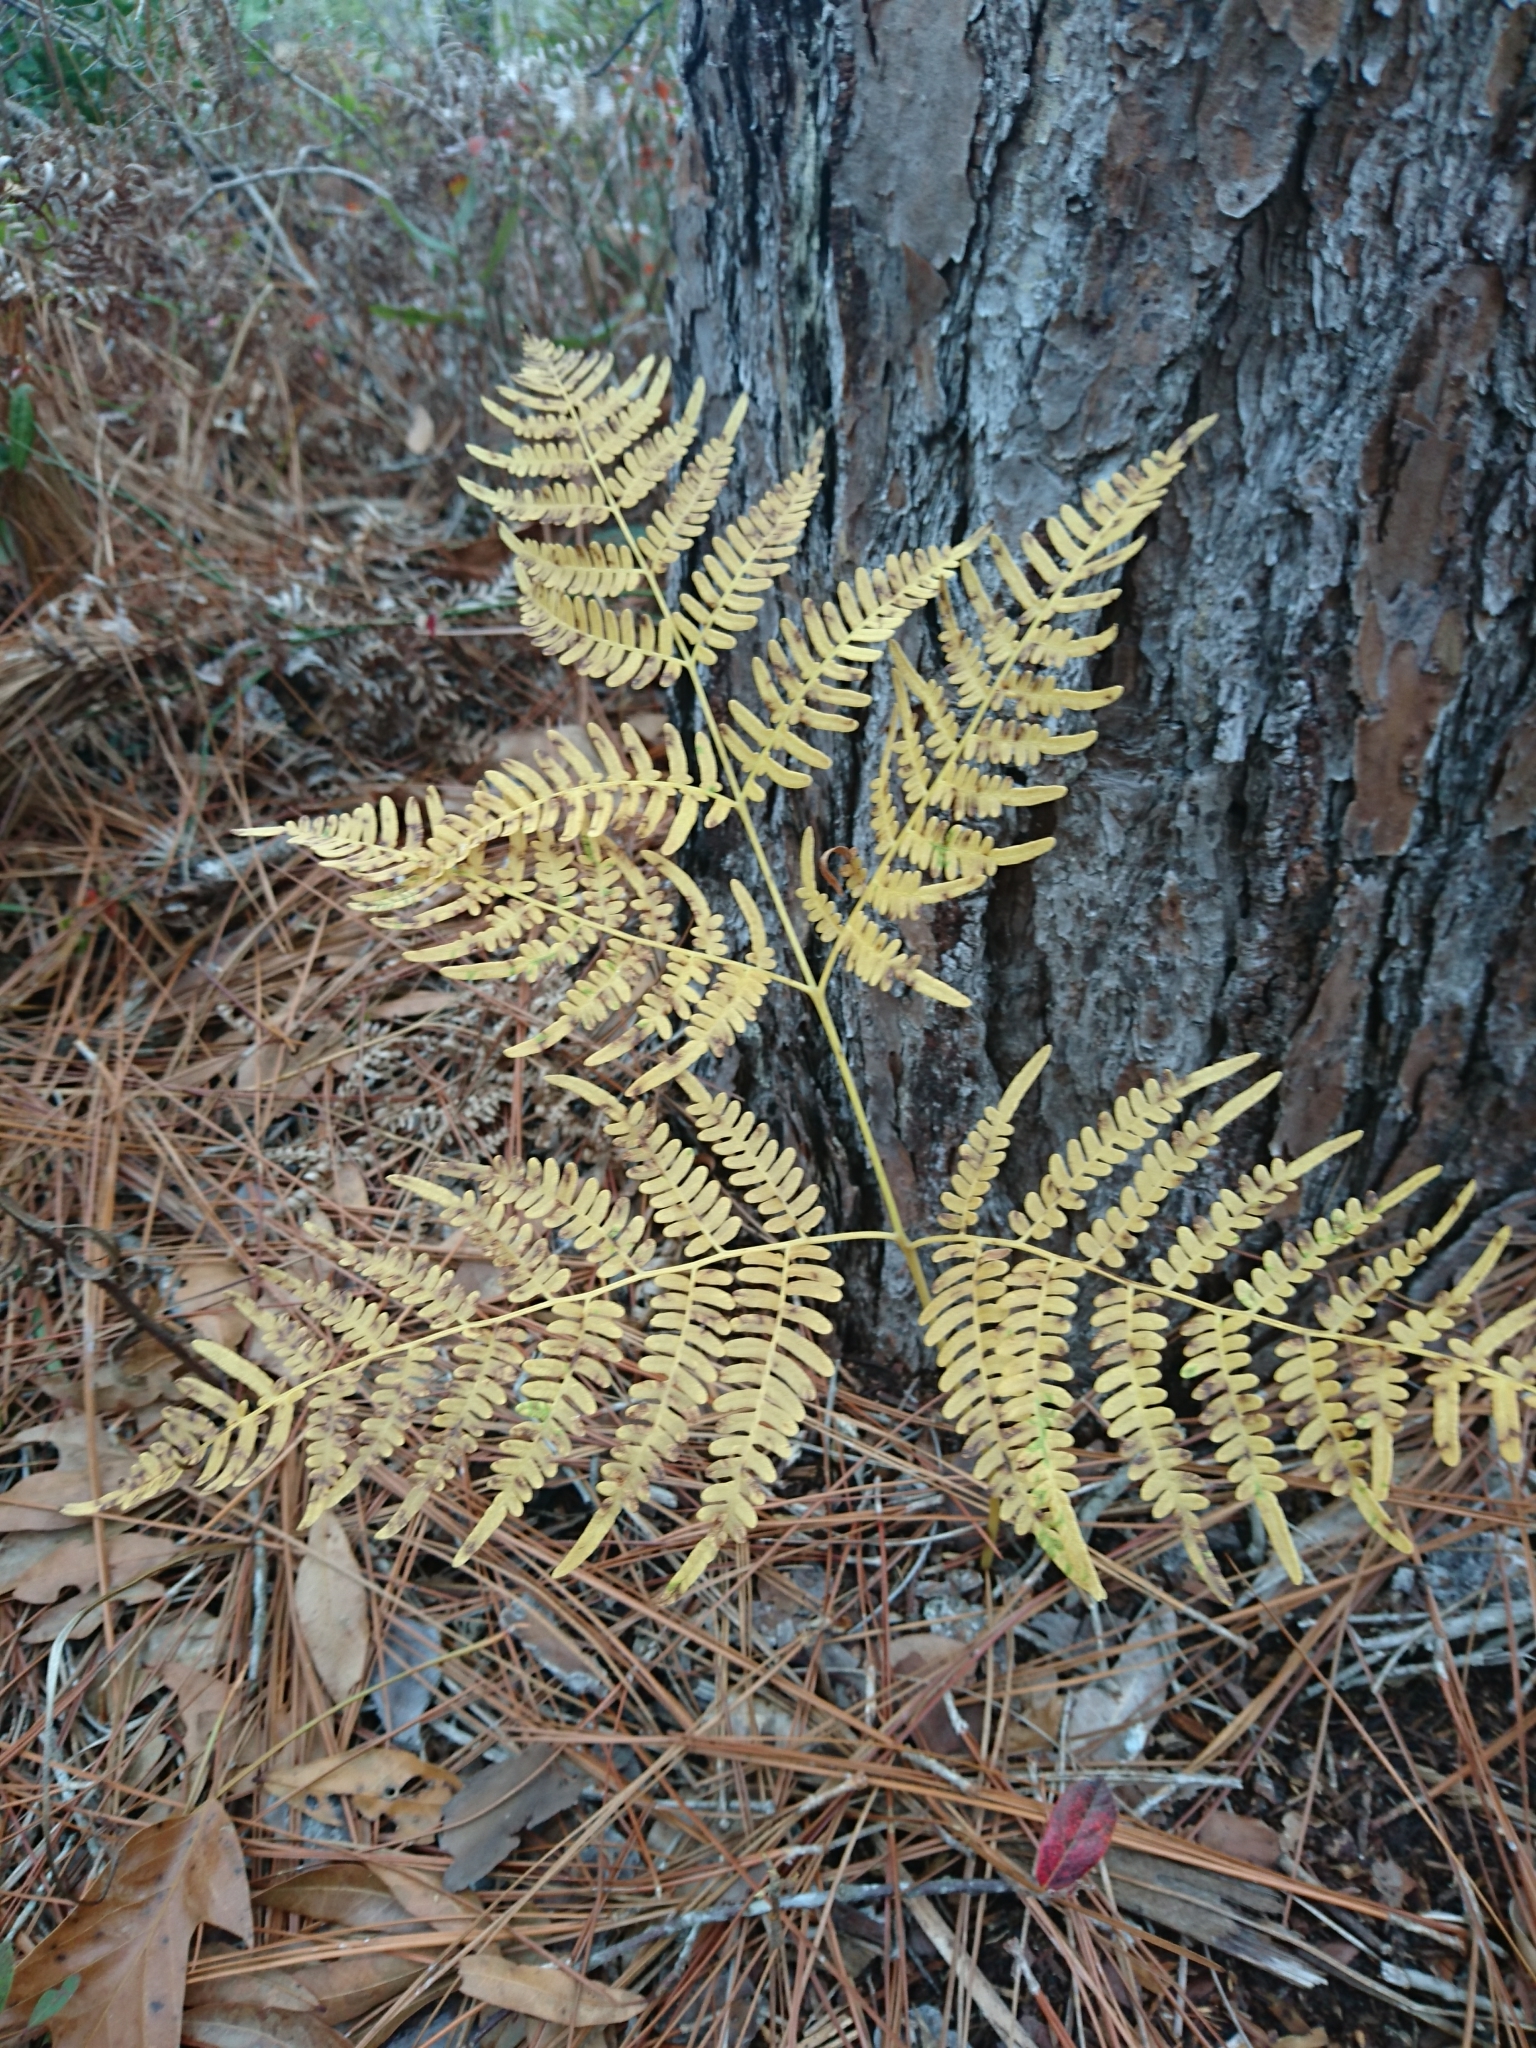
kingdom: Plantae
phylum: Tracheophyta
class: Polypodiopsida
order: Polypodiales
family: Dennstaedtiaceae
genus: Pteridium
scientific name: Pteridium aquilinum
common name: Bracken
